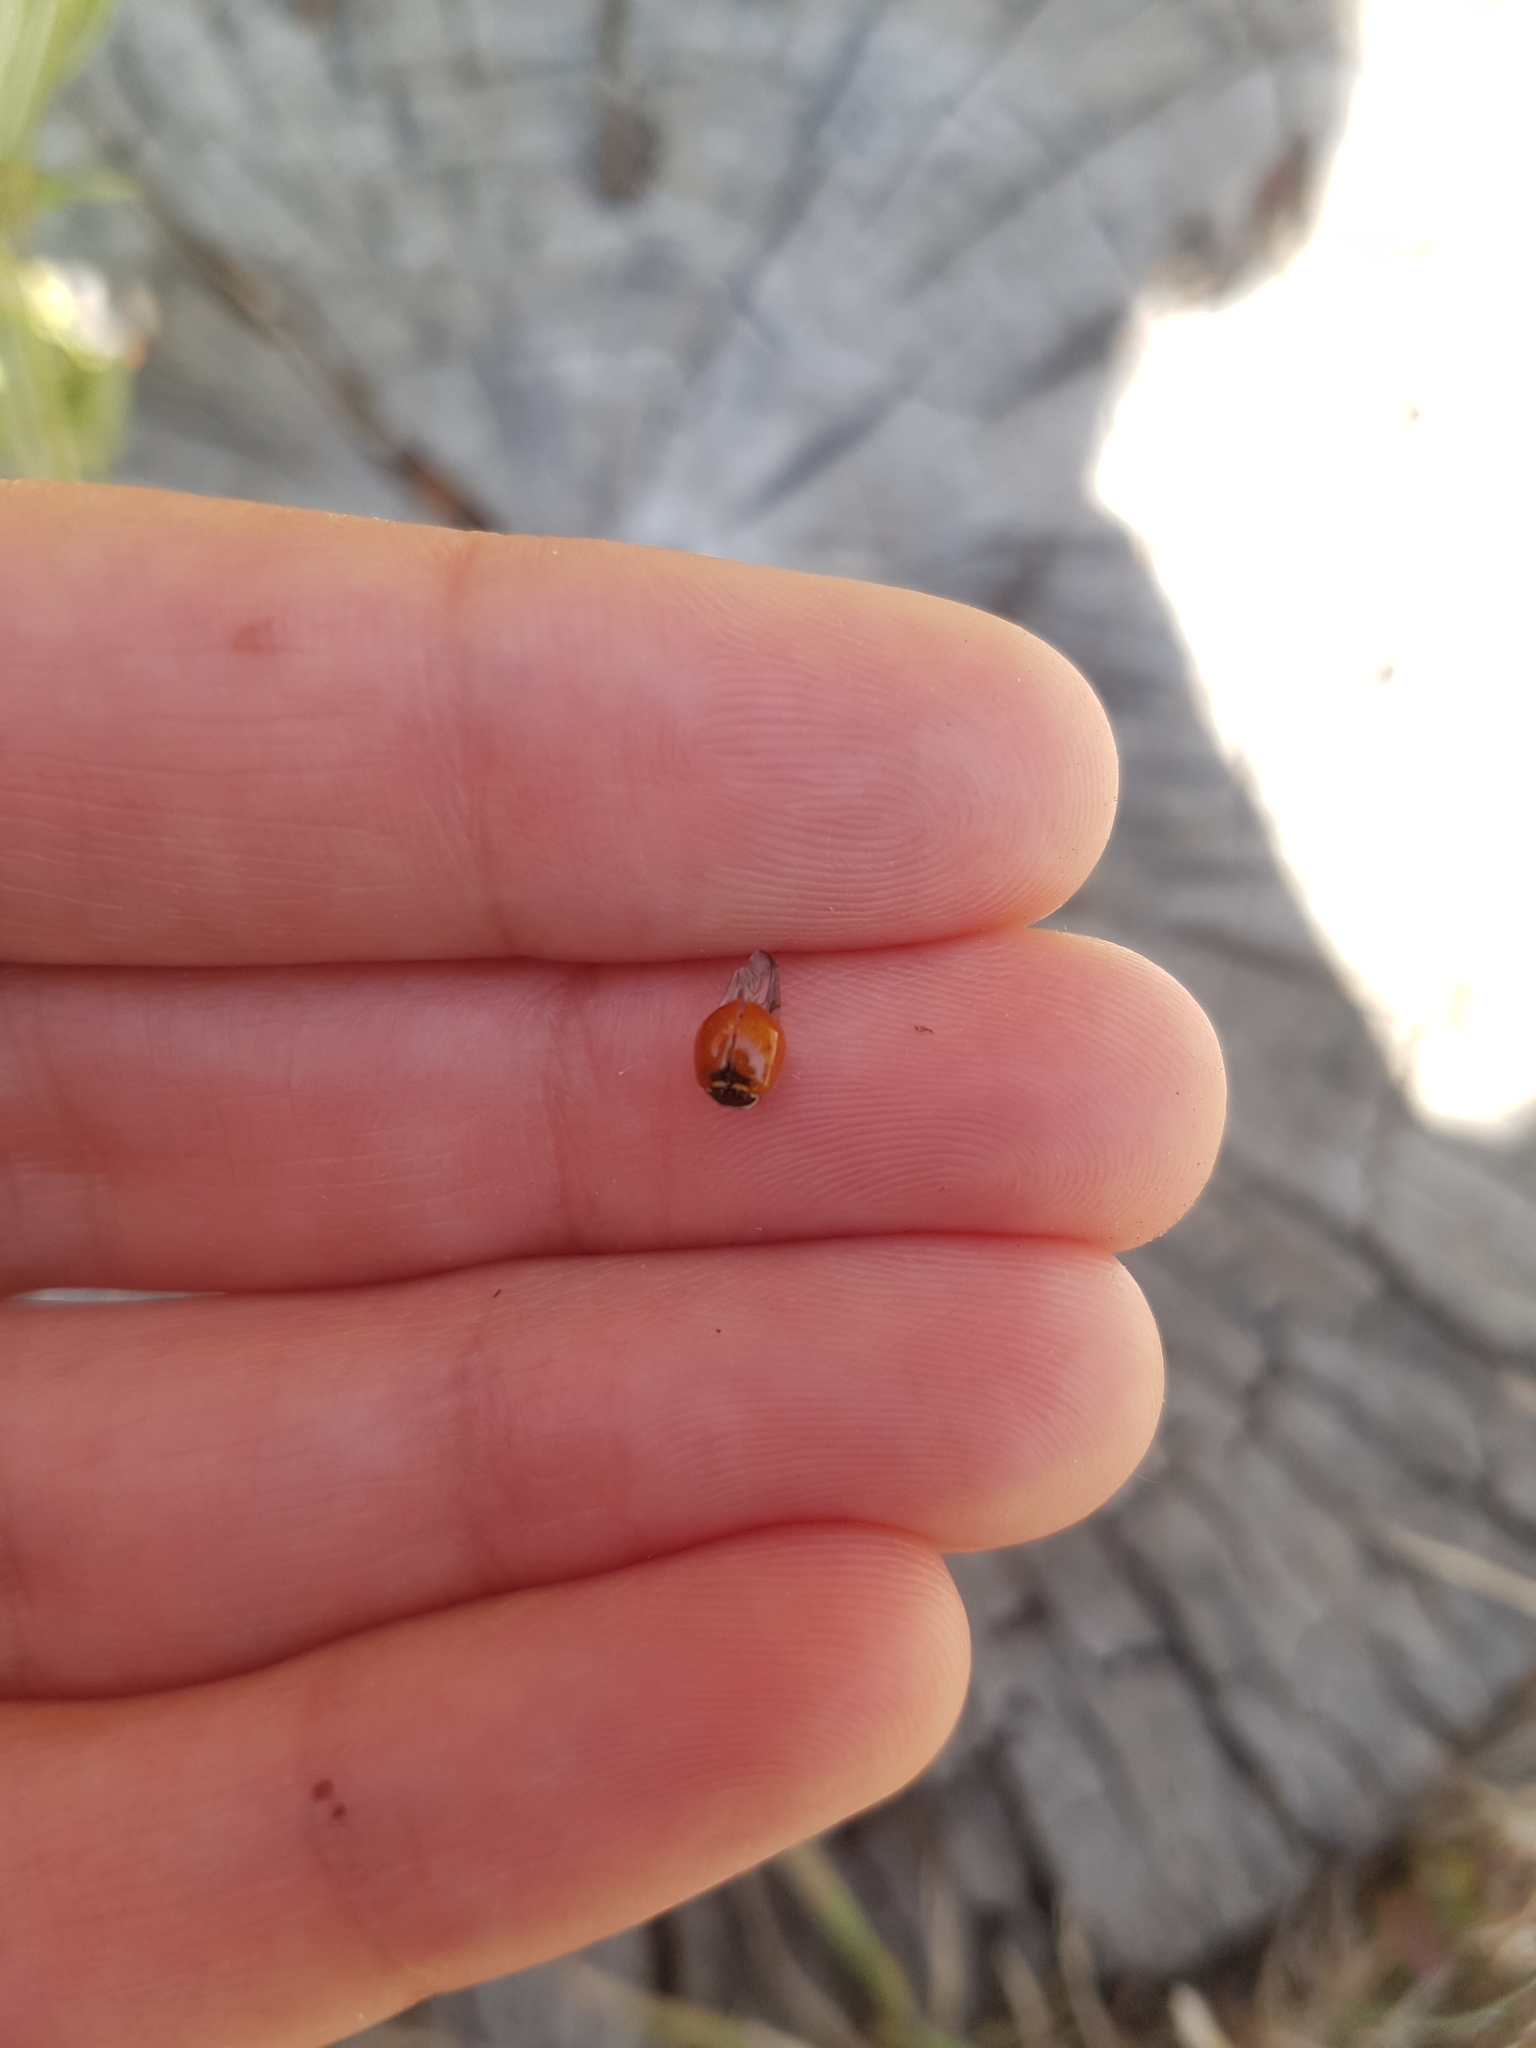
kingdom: Animalia
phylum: Arthropoda
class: Insecta
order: Coleoptera
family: Coccinellidae
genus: Adalia
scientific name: Adalia deficiens
